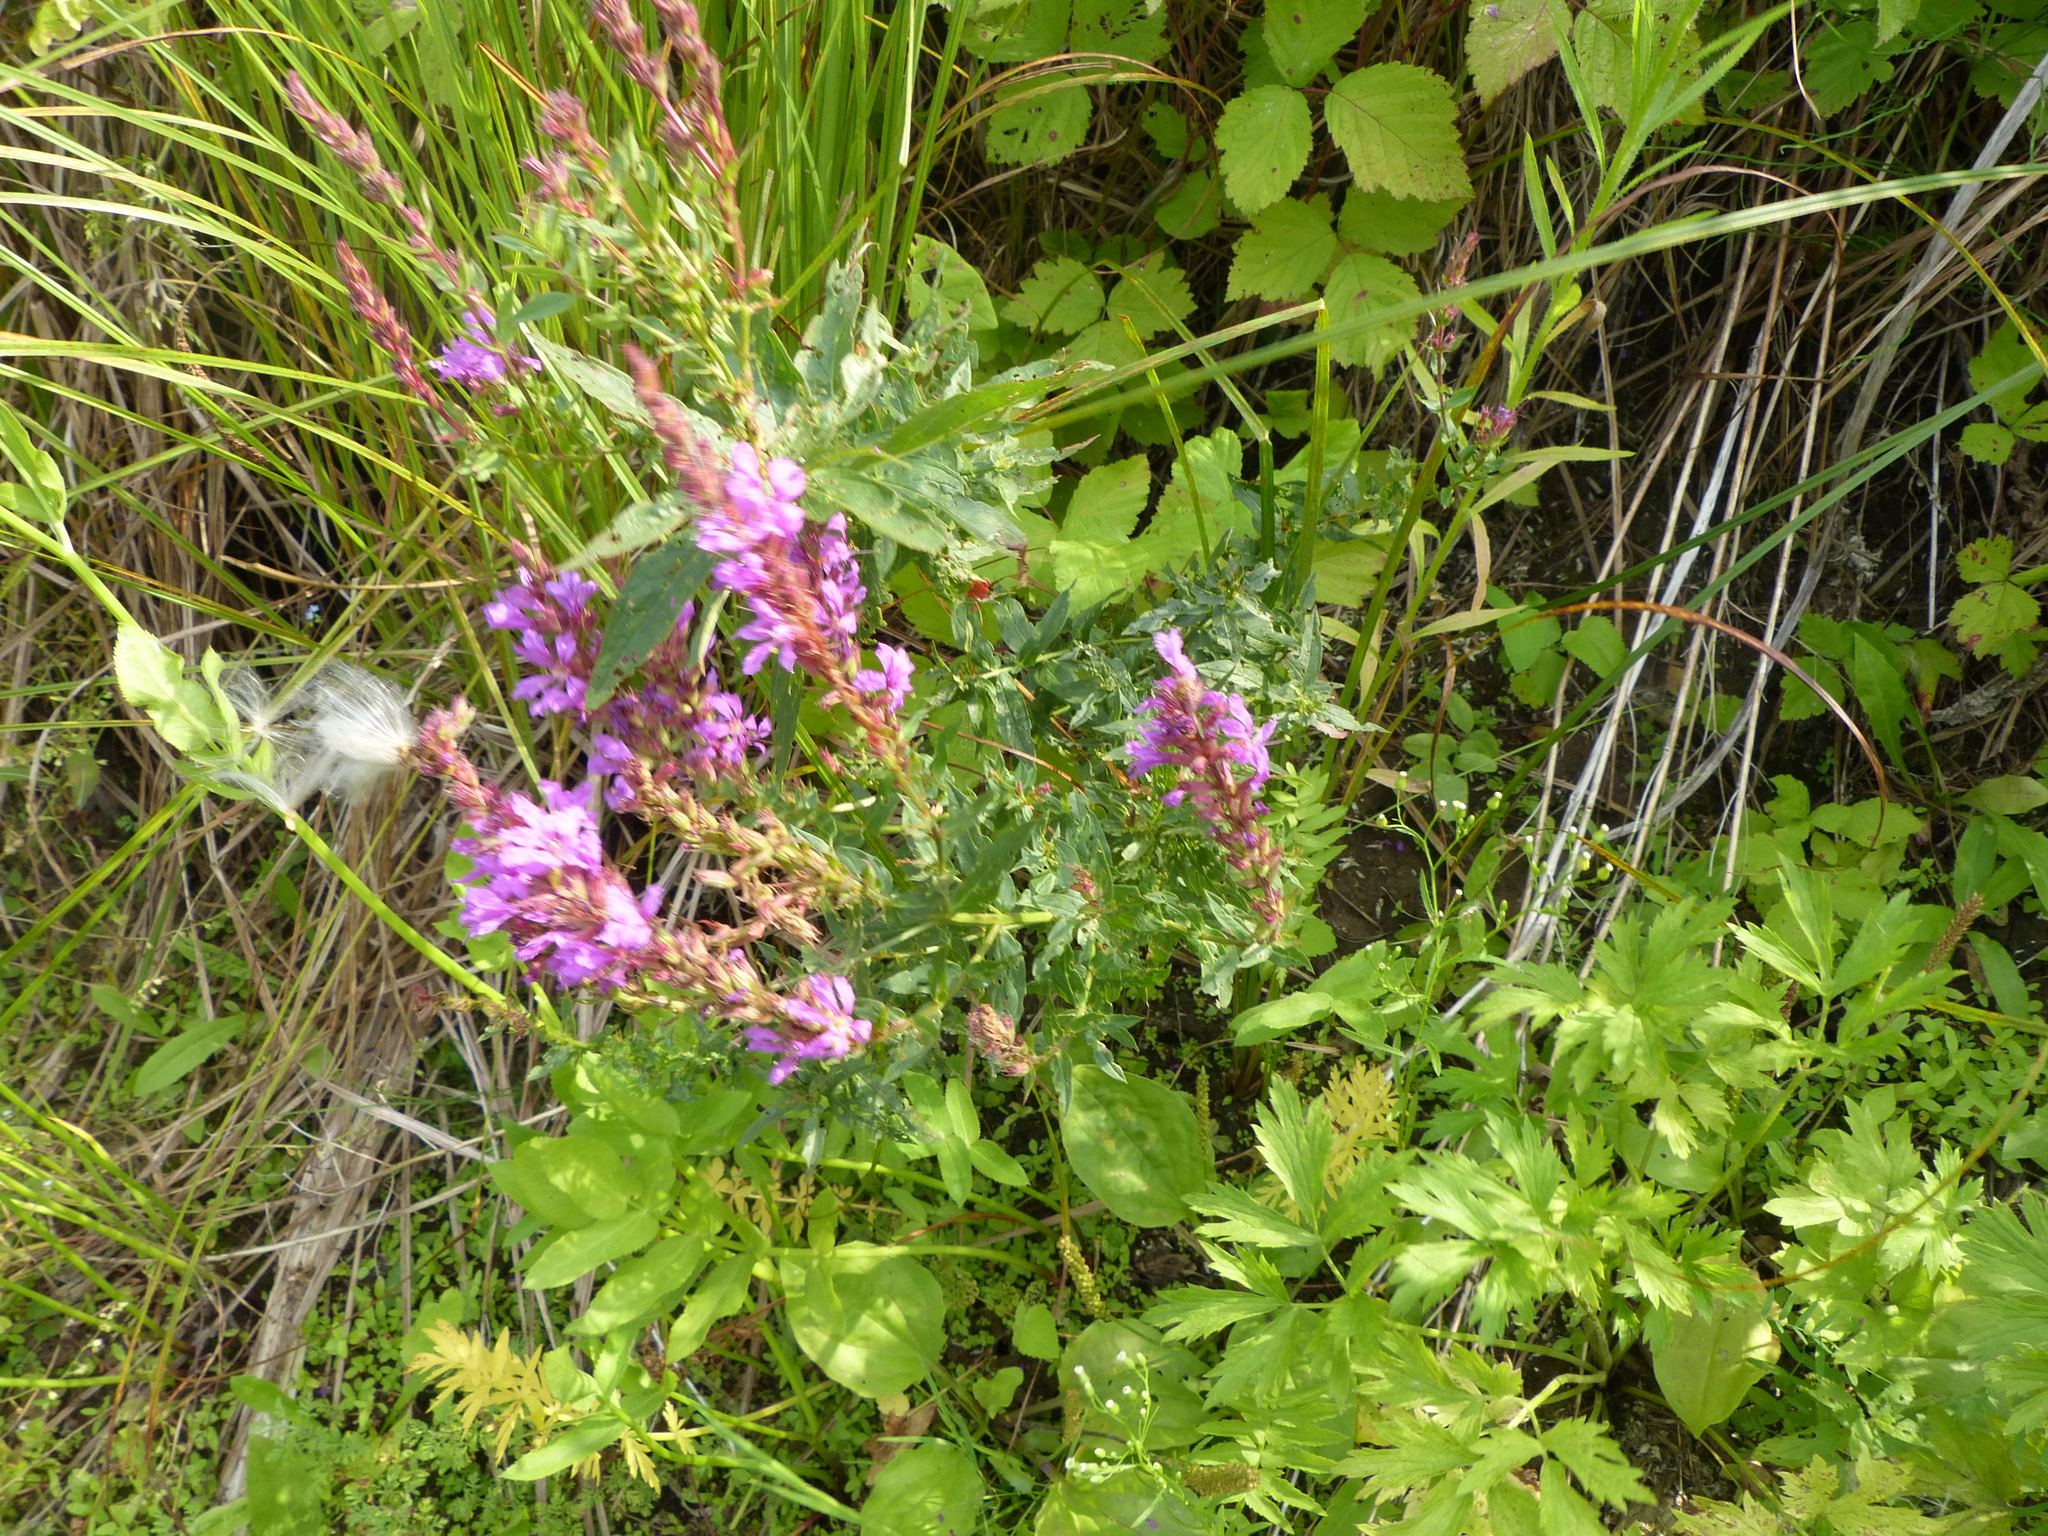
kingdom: Plantae
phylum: Tracheophyta
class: Magnoliopsida
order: Myrtales
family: Lythraceae
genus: Lythrum
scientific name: Lythrum salicaria
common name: Purple loosestrife
